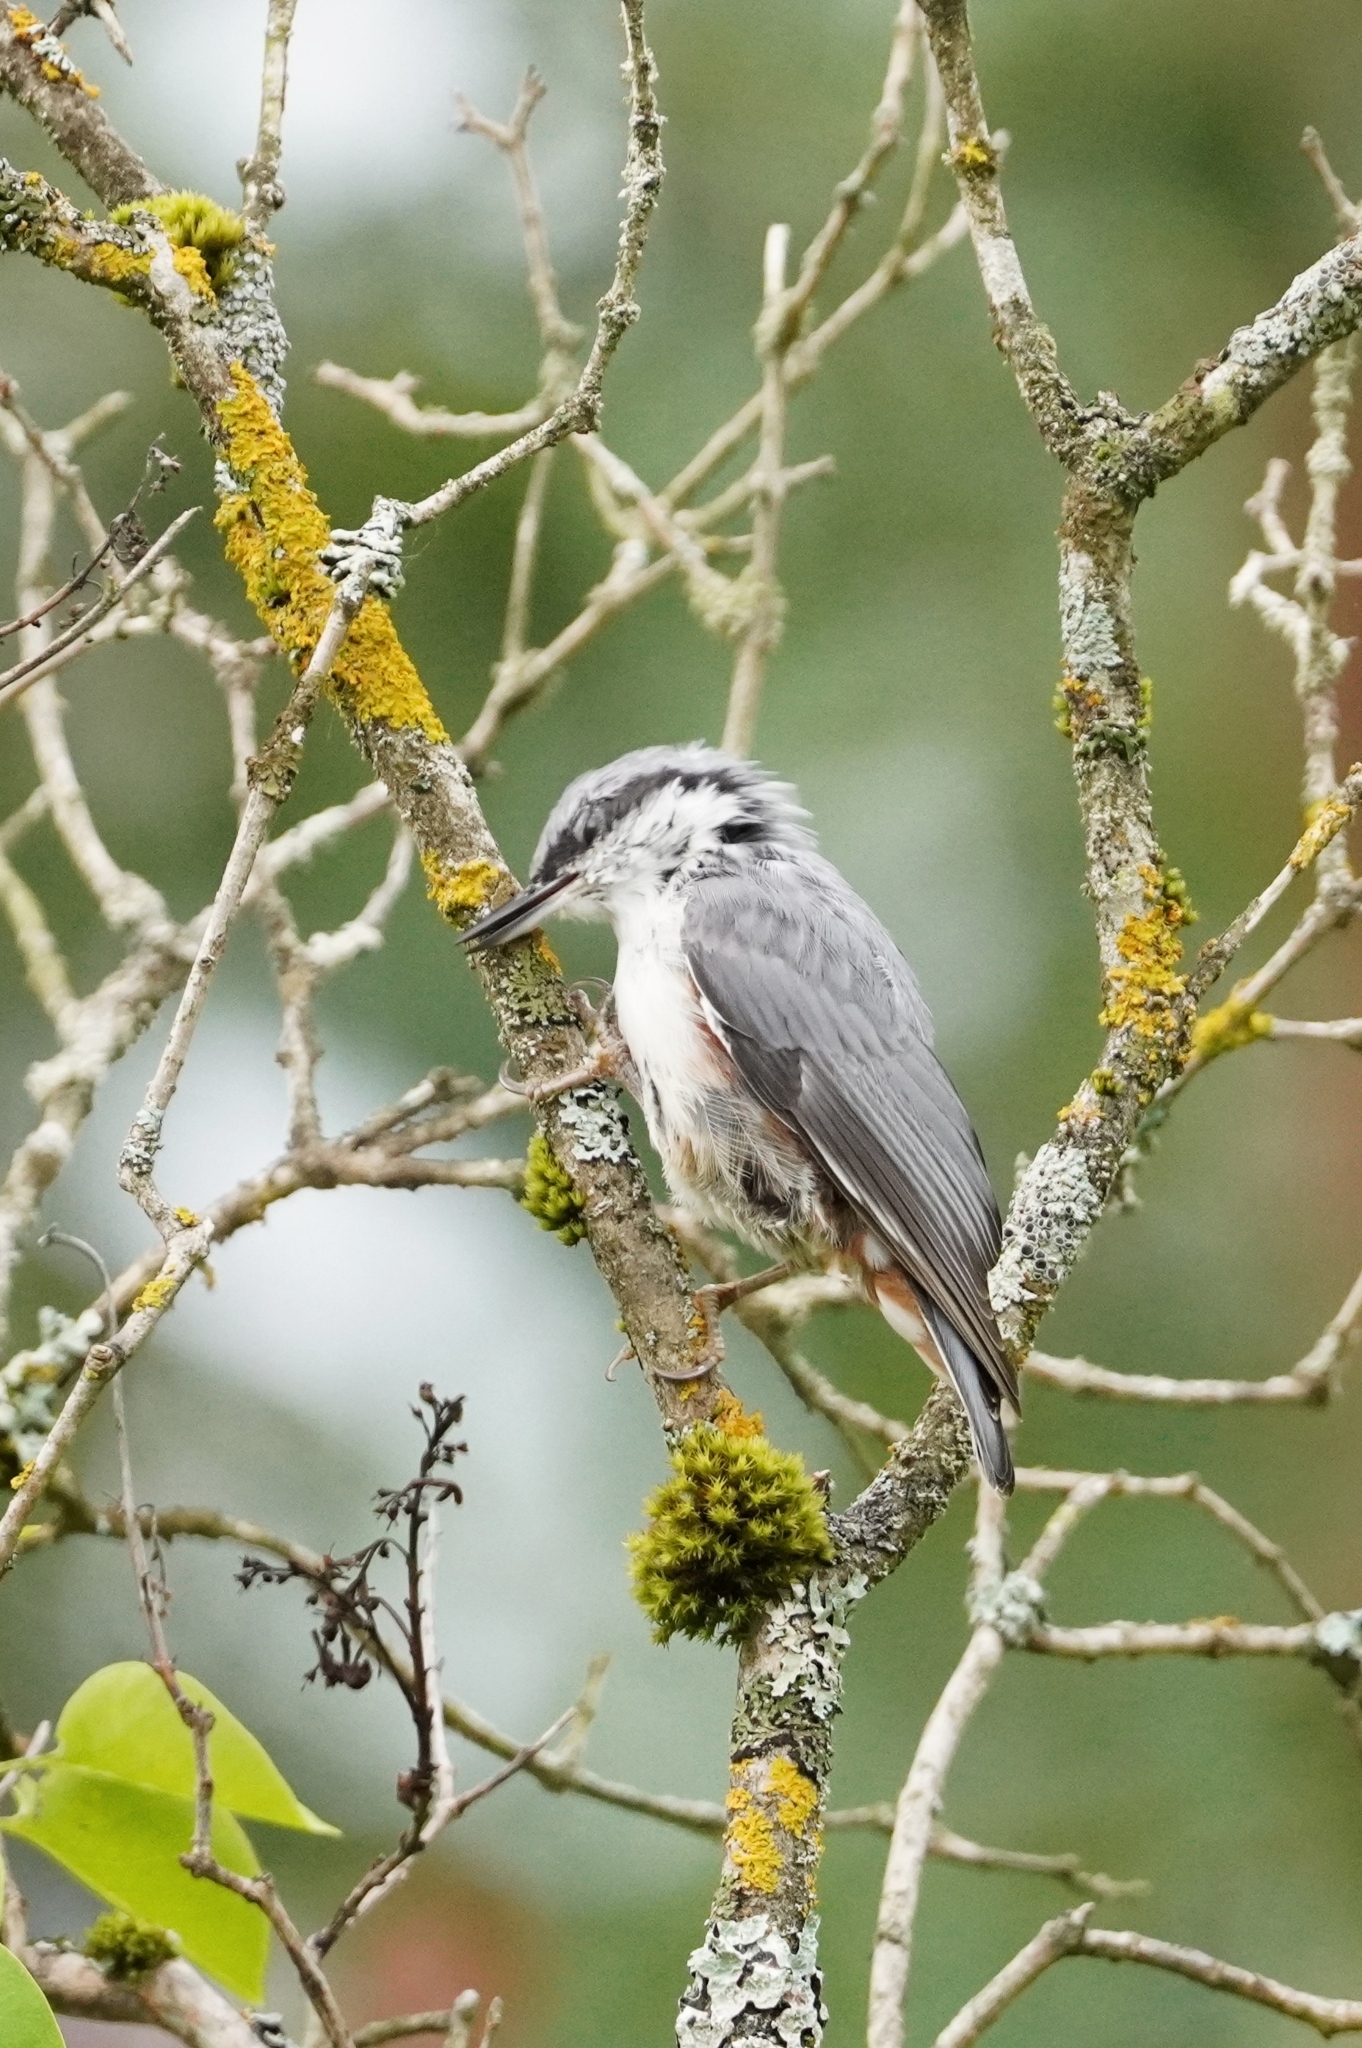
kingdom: Animalia
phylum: Chordata
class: Aves
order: Passeriformes
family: Sittidae
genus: Sitta
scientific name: Sitta europaea
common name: Eurasian nuthatch
